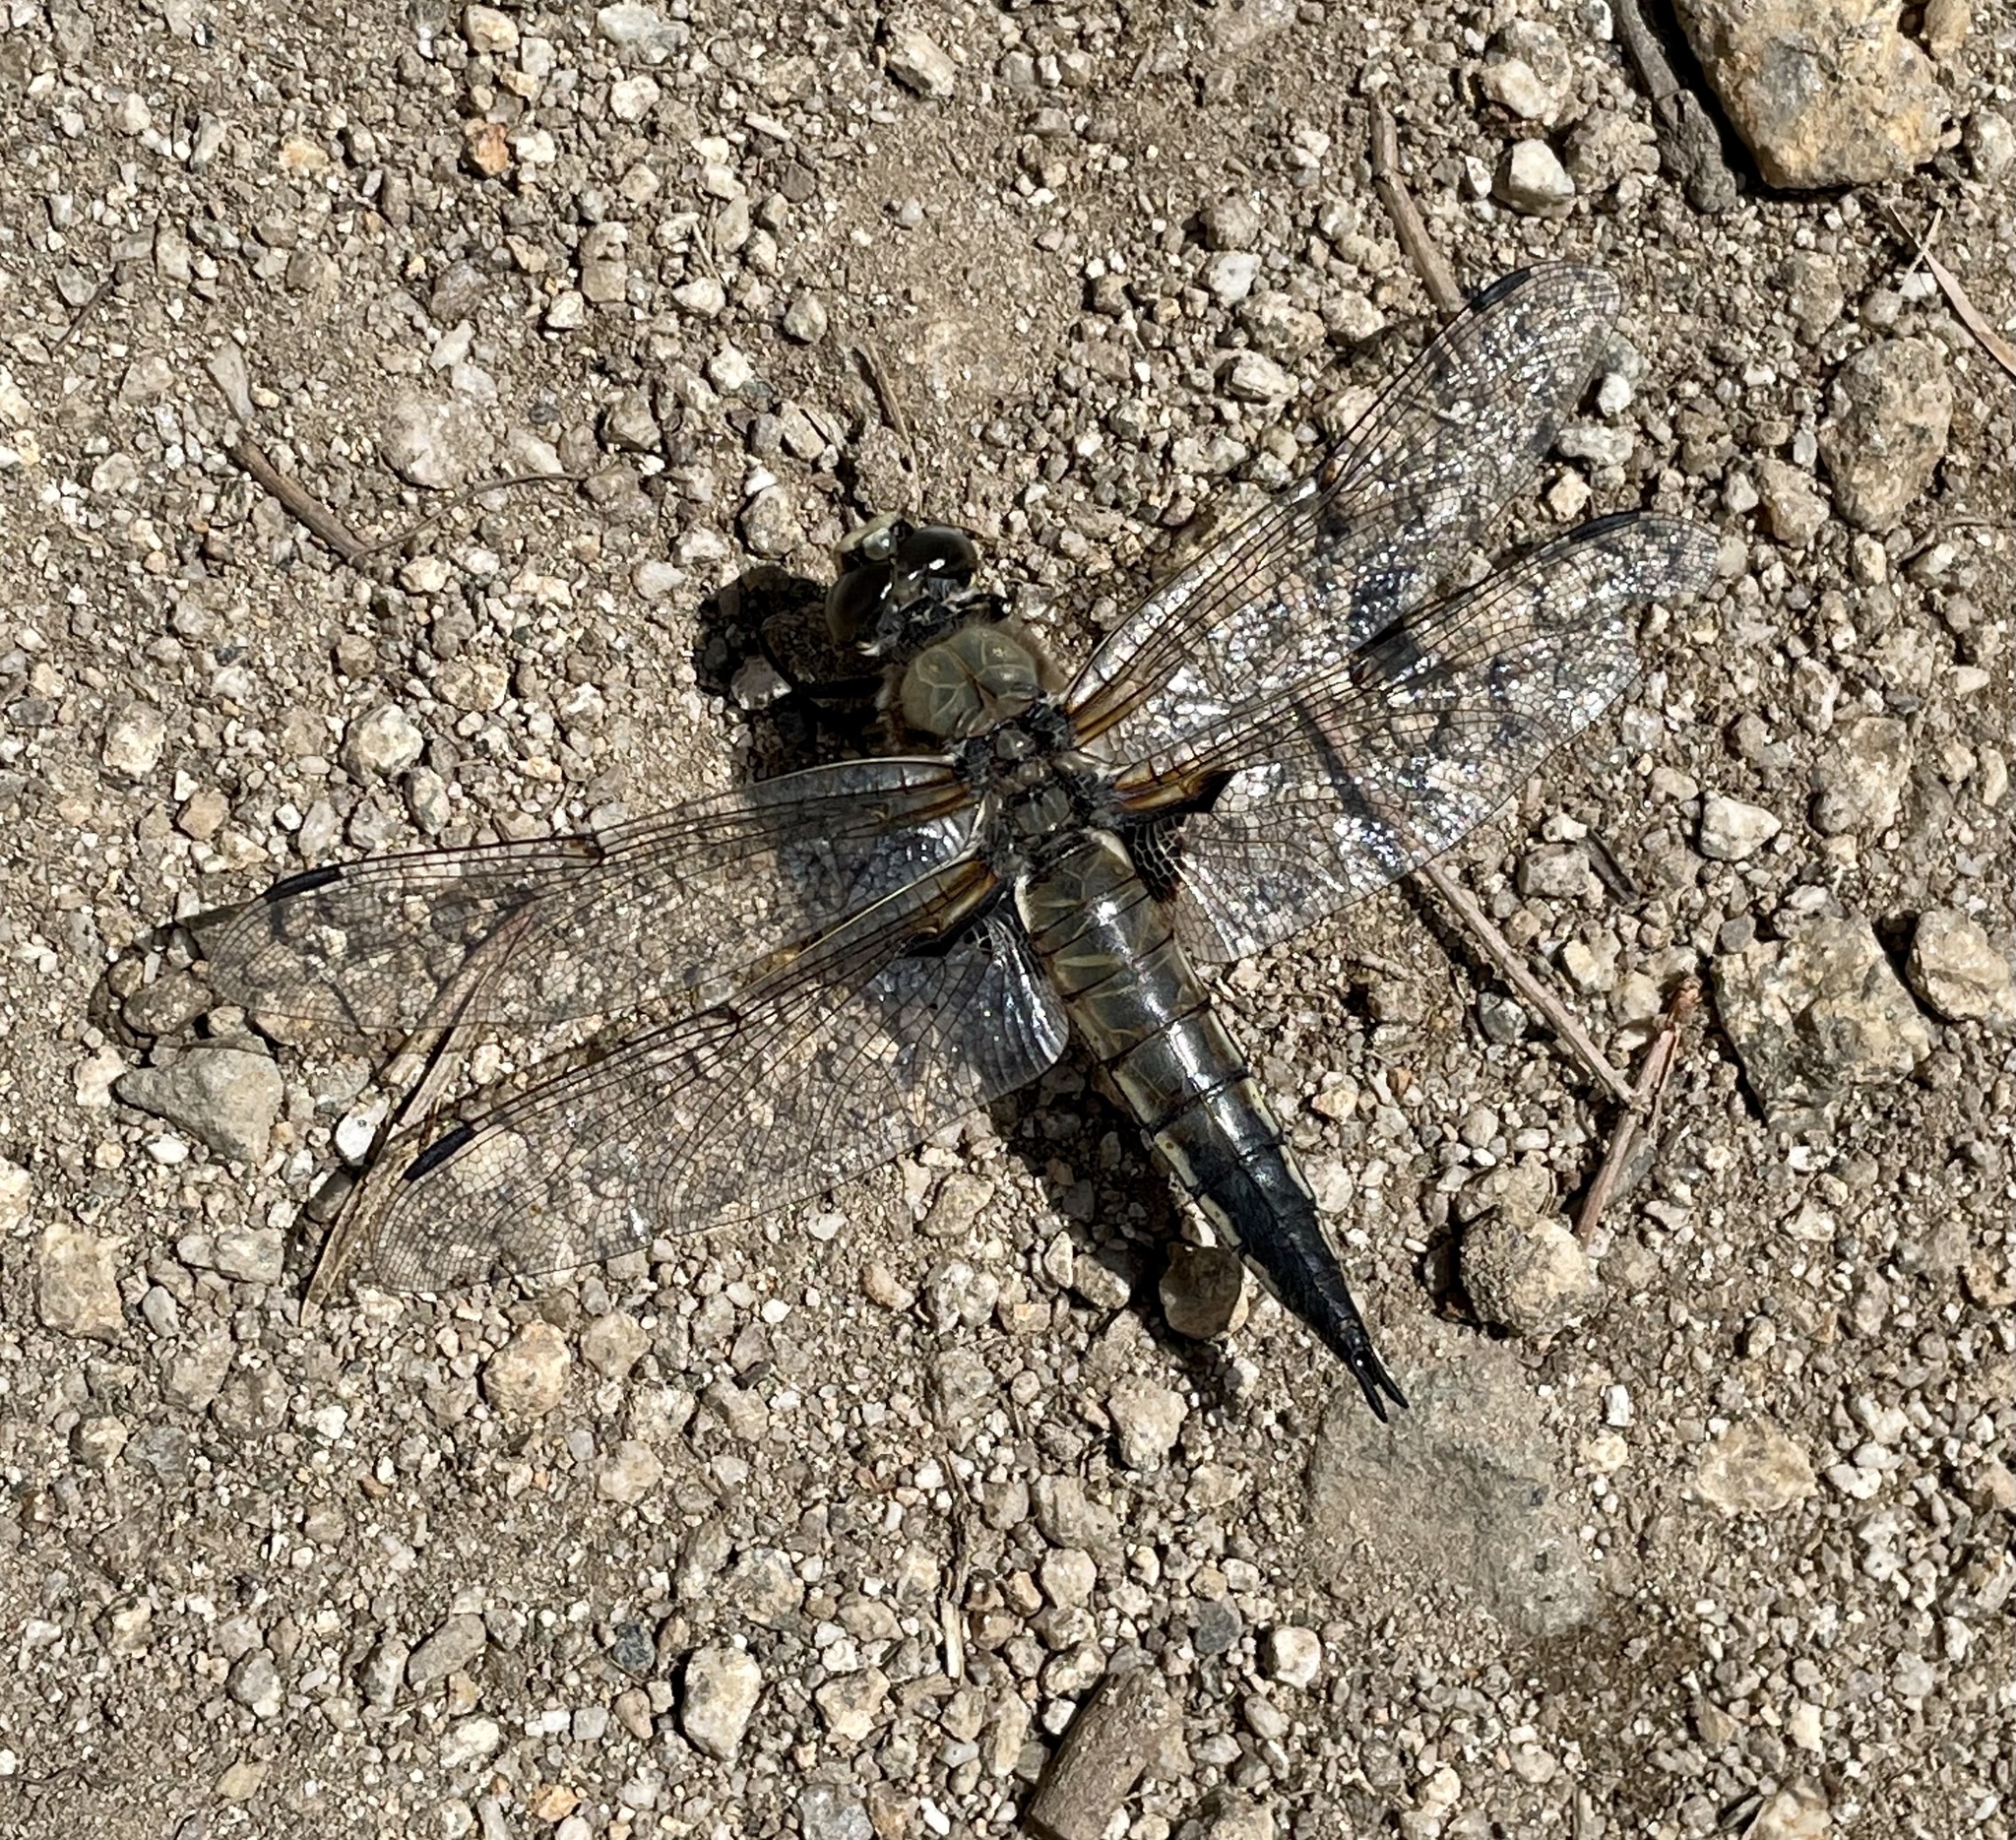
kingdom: Animalia
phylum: Arthropoda
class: Insecta
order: Odonata
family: Libellulidae
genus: Libellula
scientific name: Libellula quadrimaculata
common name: Four-spotted chaser
